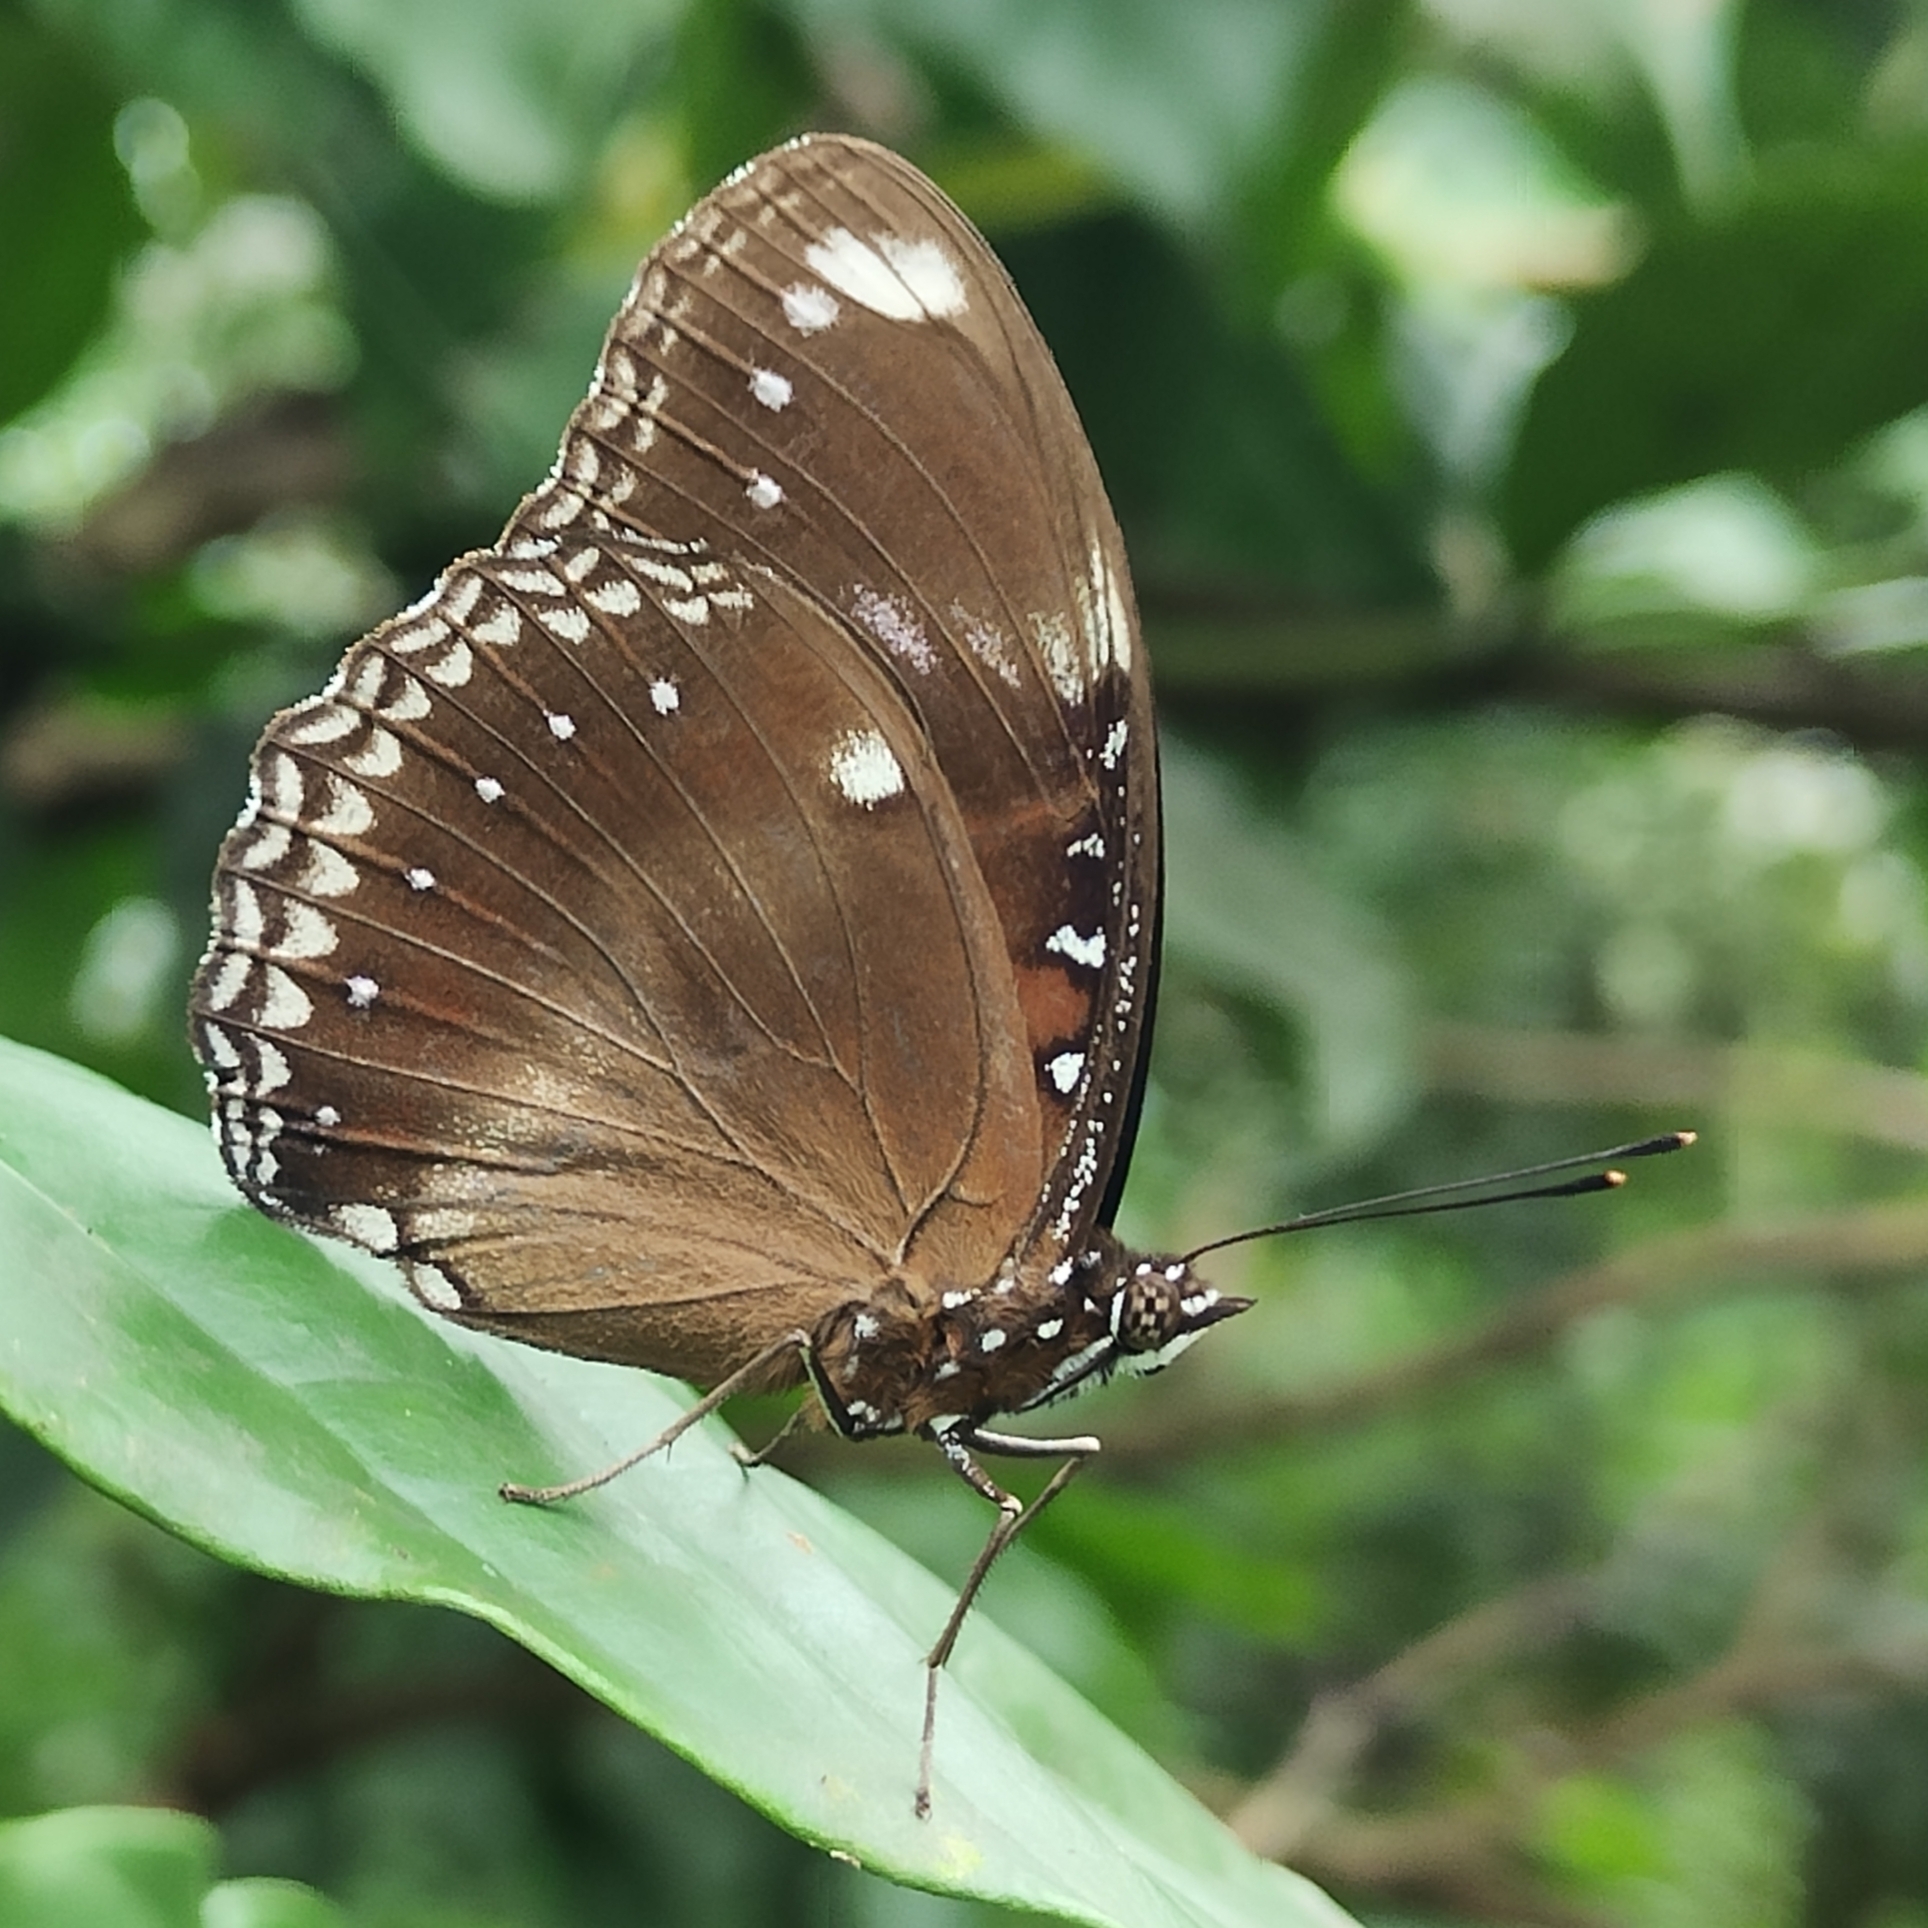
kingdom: Animalia
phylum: Arthropoda
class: Insecta
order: Lepidoptera
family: Nymphalidae
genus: Hypolimnas
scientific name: Hypolimnas bolina
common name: Great eggfly
